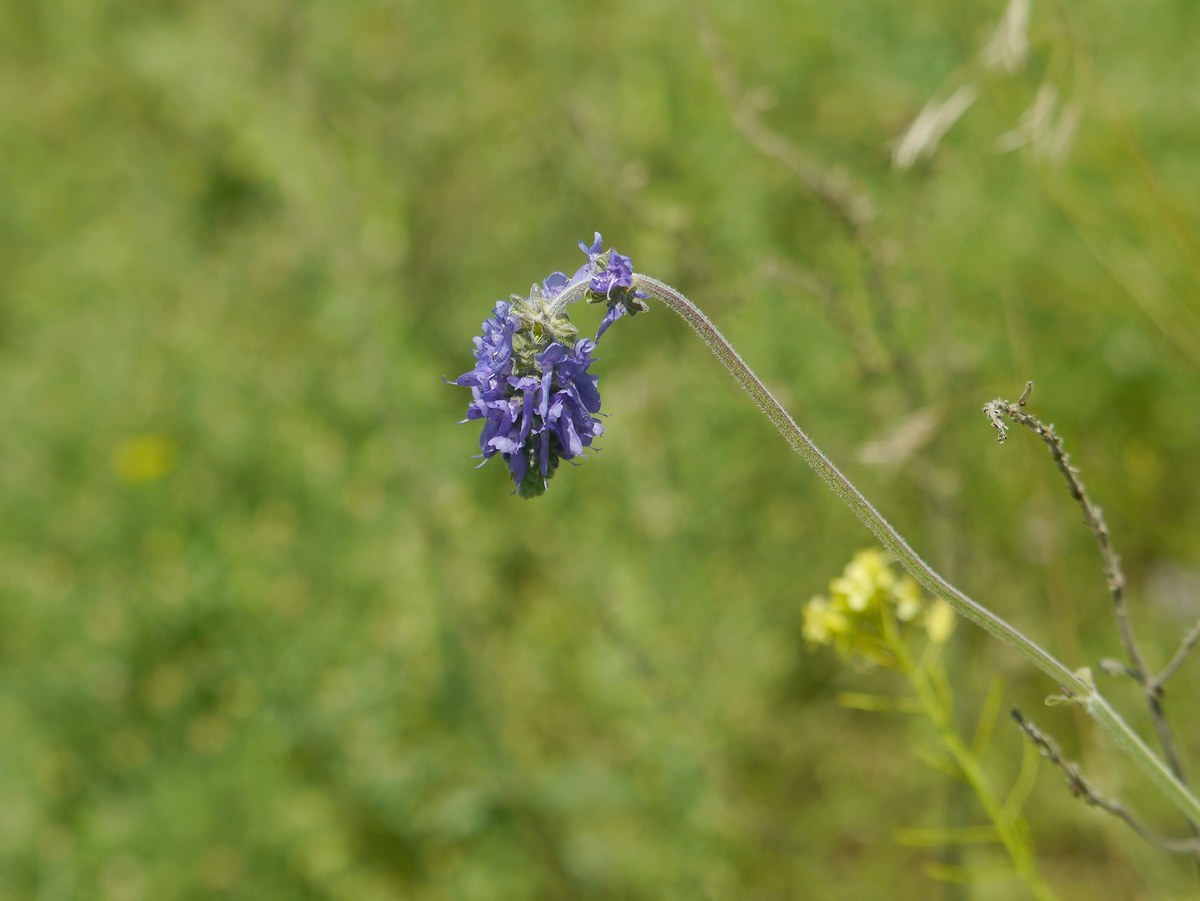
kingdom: Plantae
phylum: Tracheophyta
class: Magnoliopsida
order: Lamiales
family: Lamiaceae
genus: Salvia
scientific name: Salvia nutans
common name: Nodding sage
